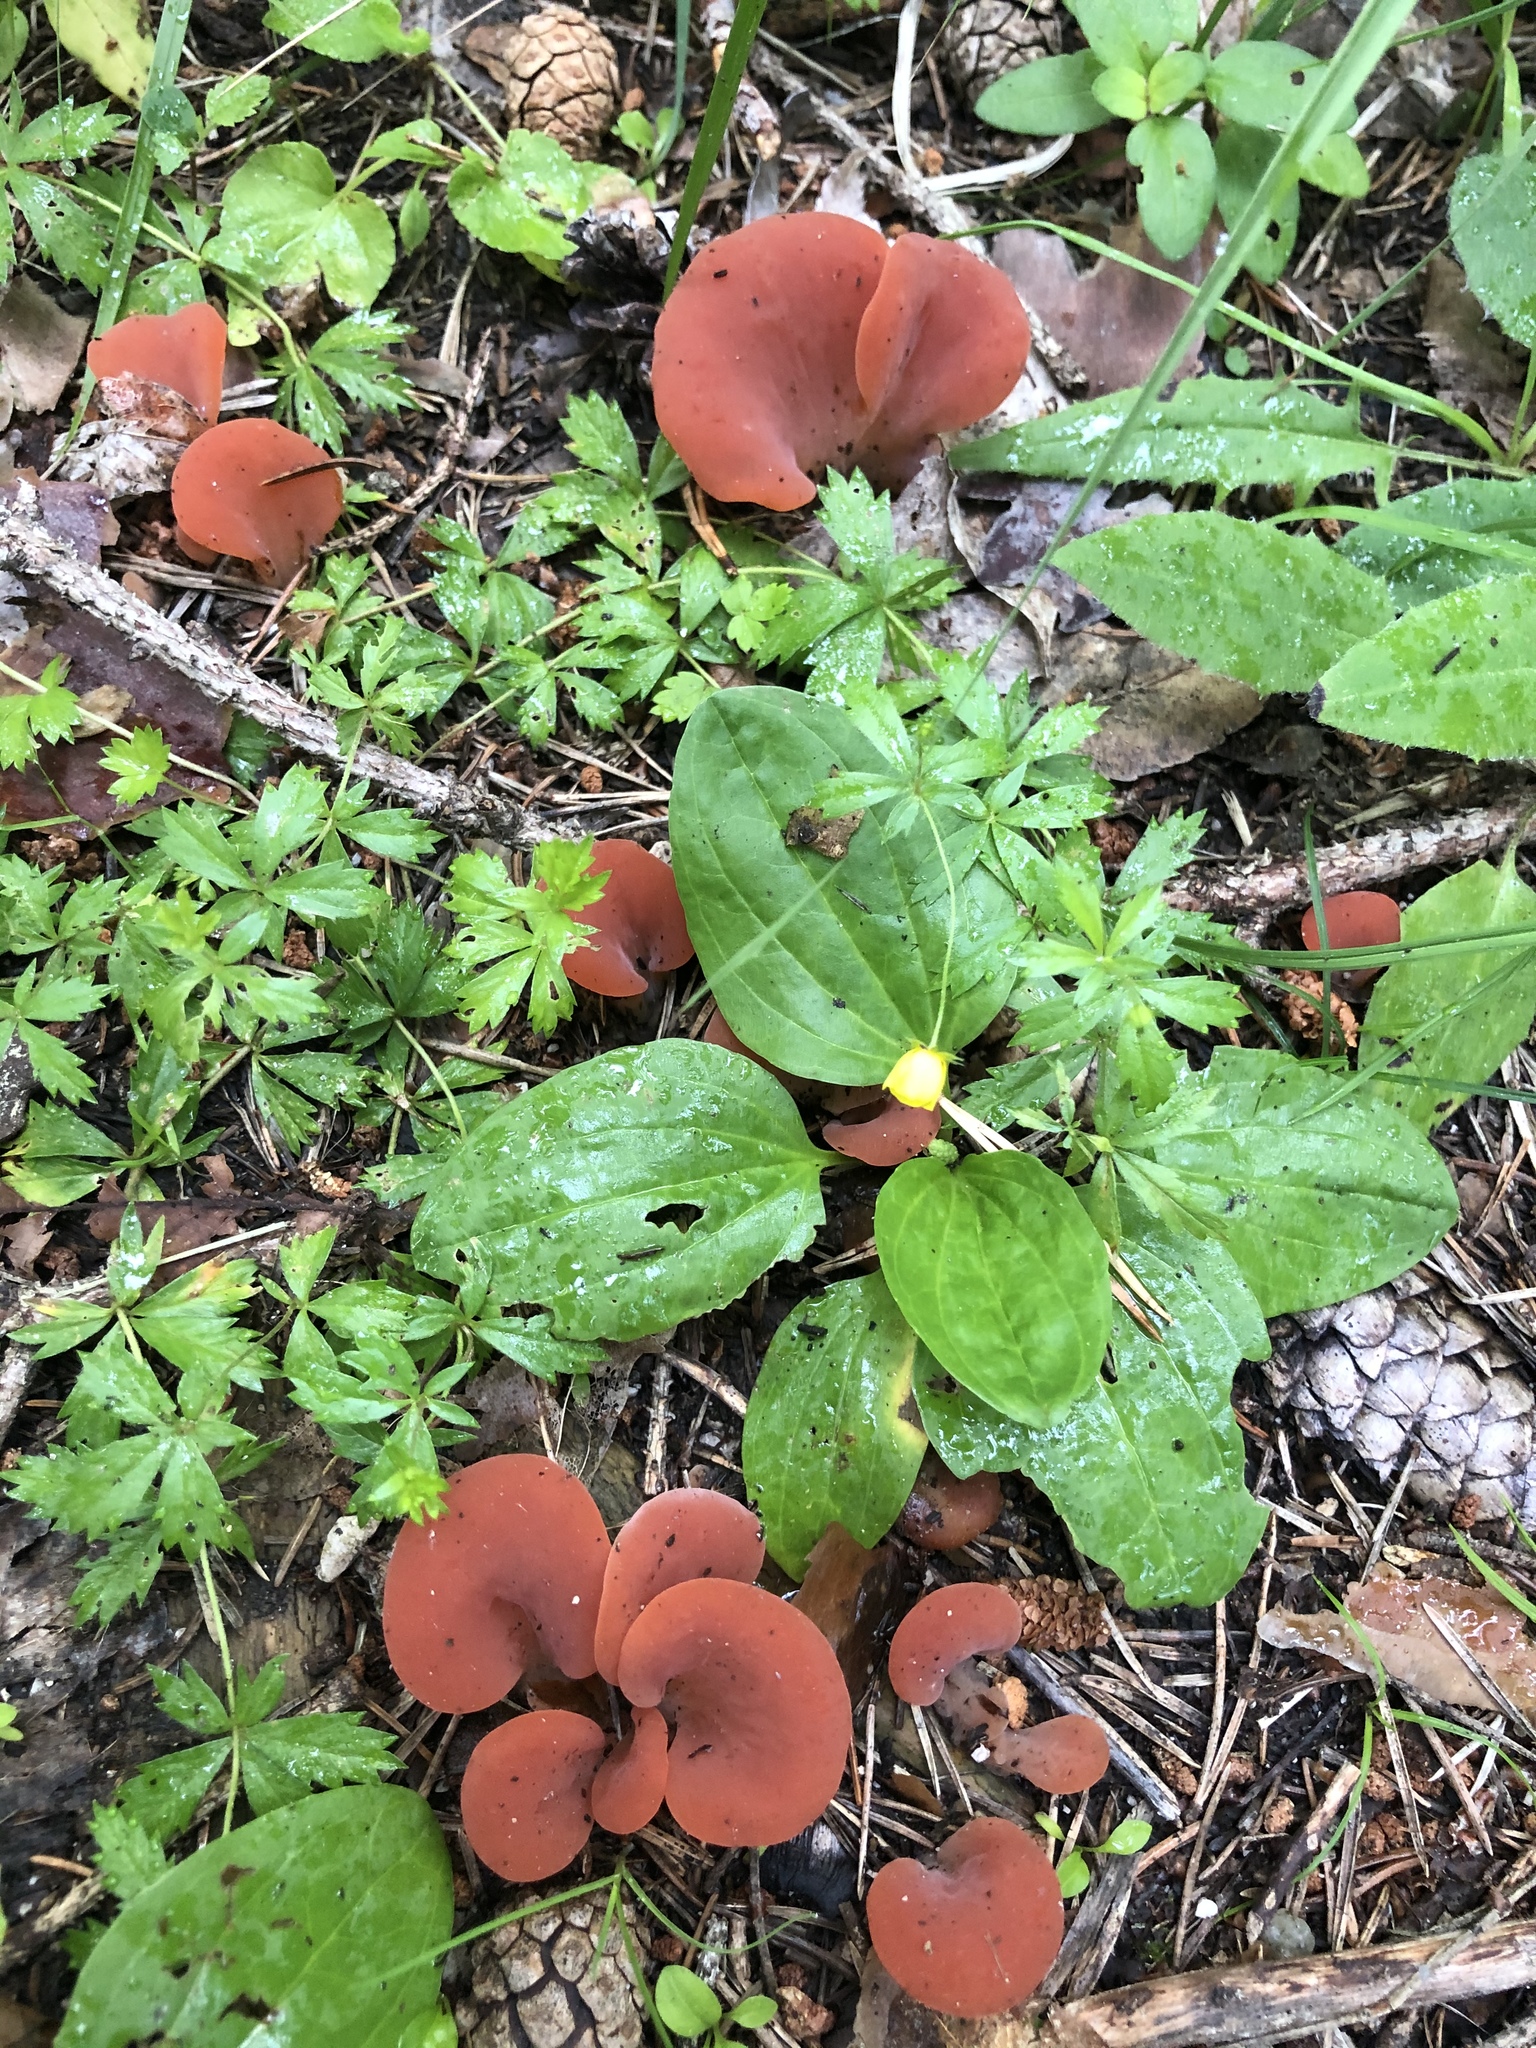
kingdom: Fungi
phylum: Basidiomycota
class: Agaricomycetes
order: Auriculariales
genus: Guepinia
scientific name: Guepinia helvelloides
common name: Salmon salad
